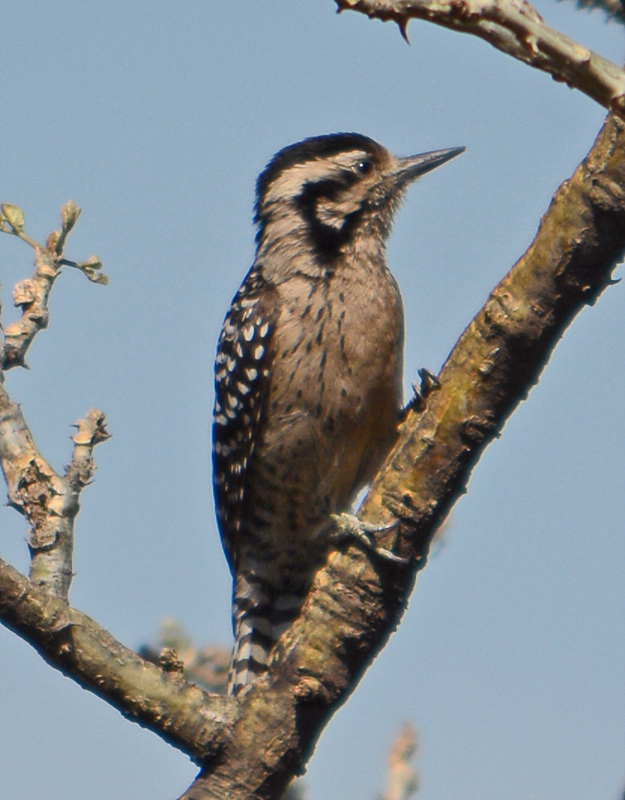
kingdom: Animalia
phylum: Chordata
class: Aves
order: Piciformes
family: Picidae
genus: Dryobates
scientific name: Dryobates scalaris
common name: Ladder-backed woodpecker
